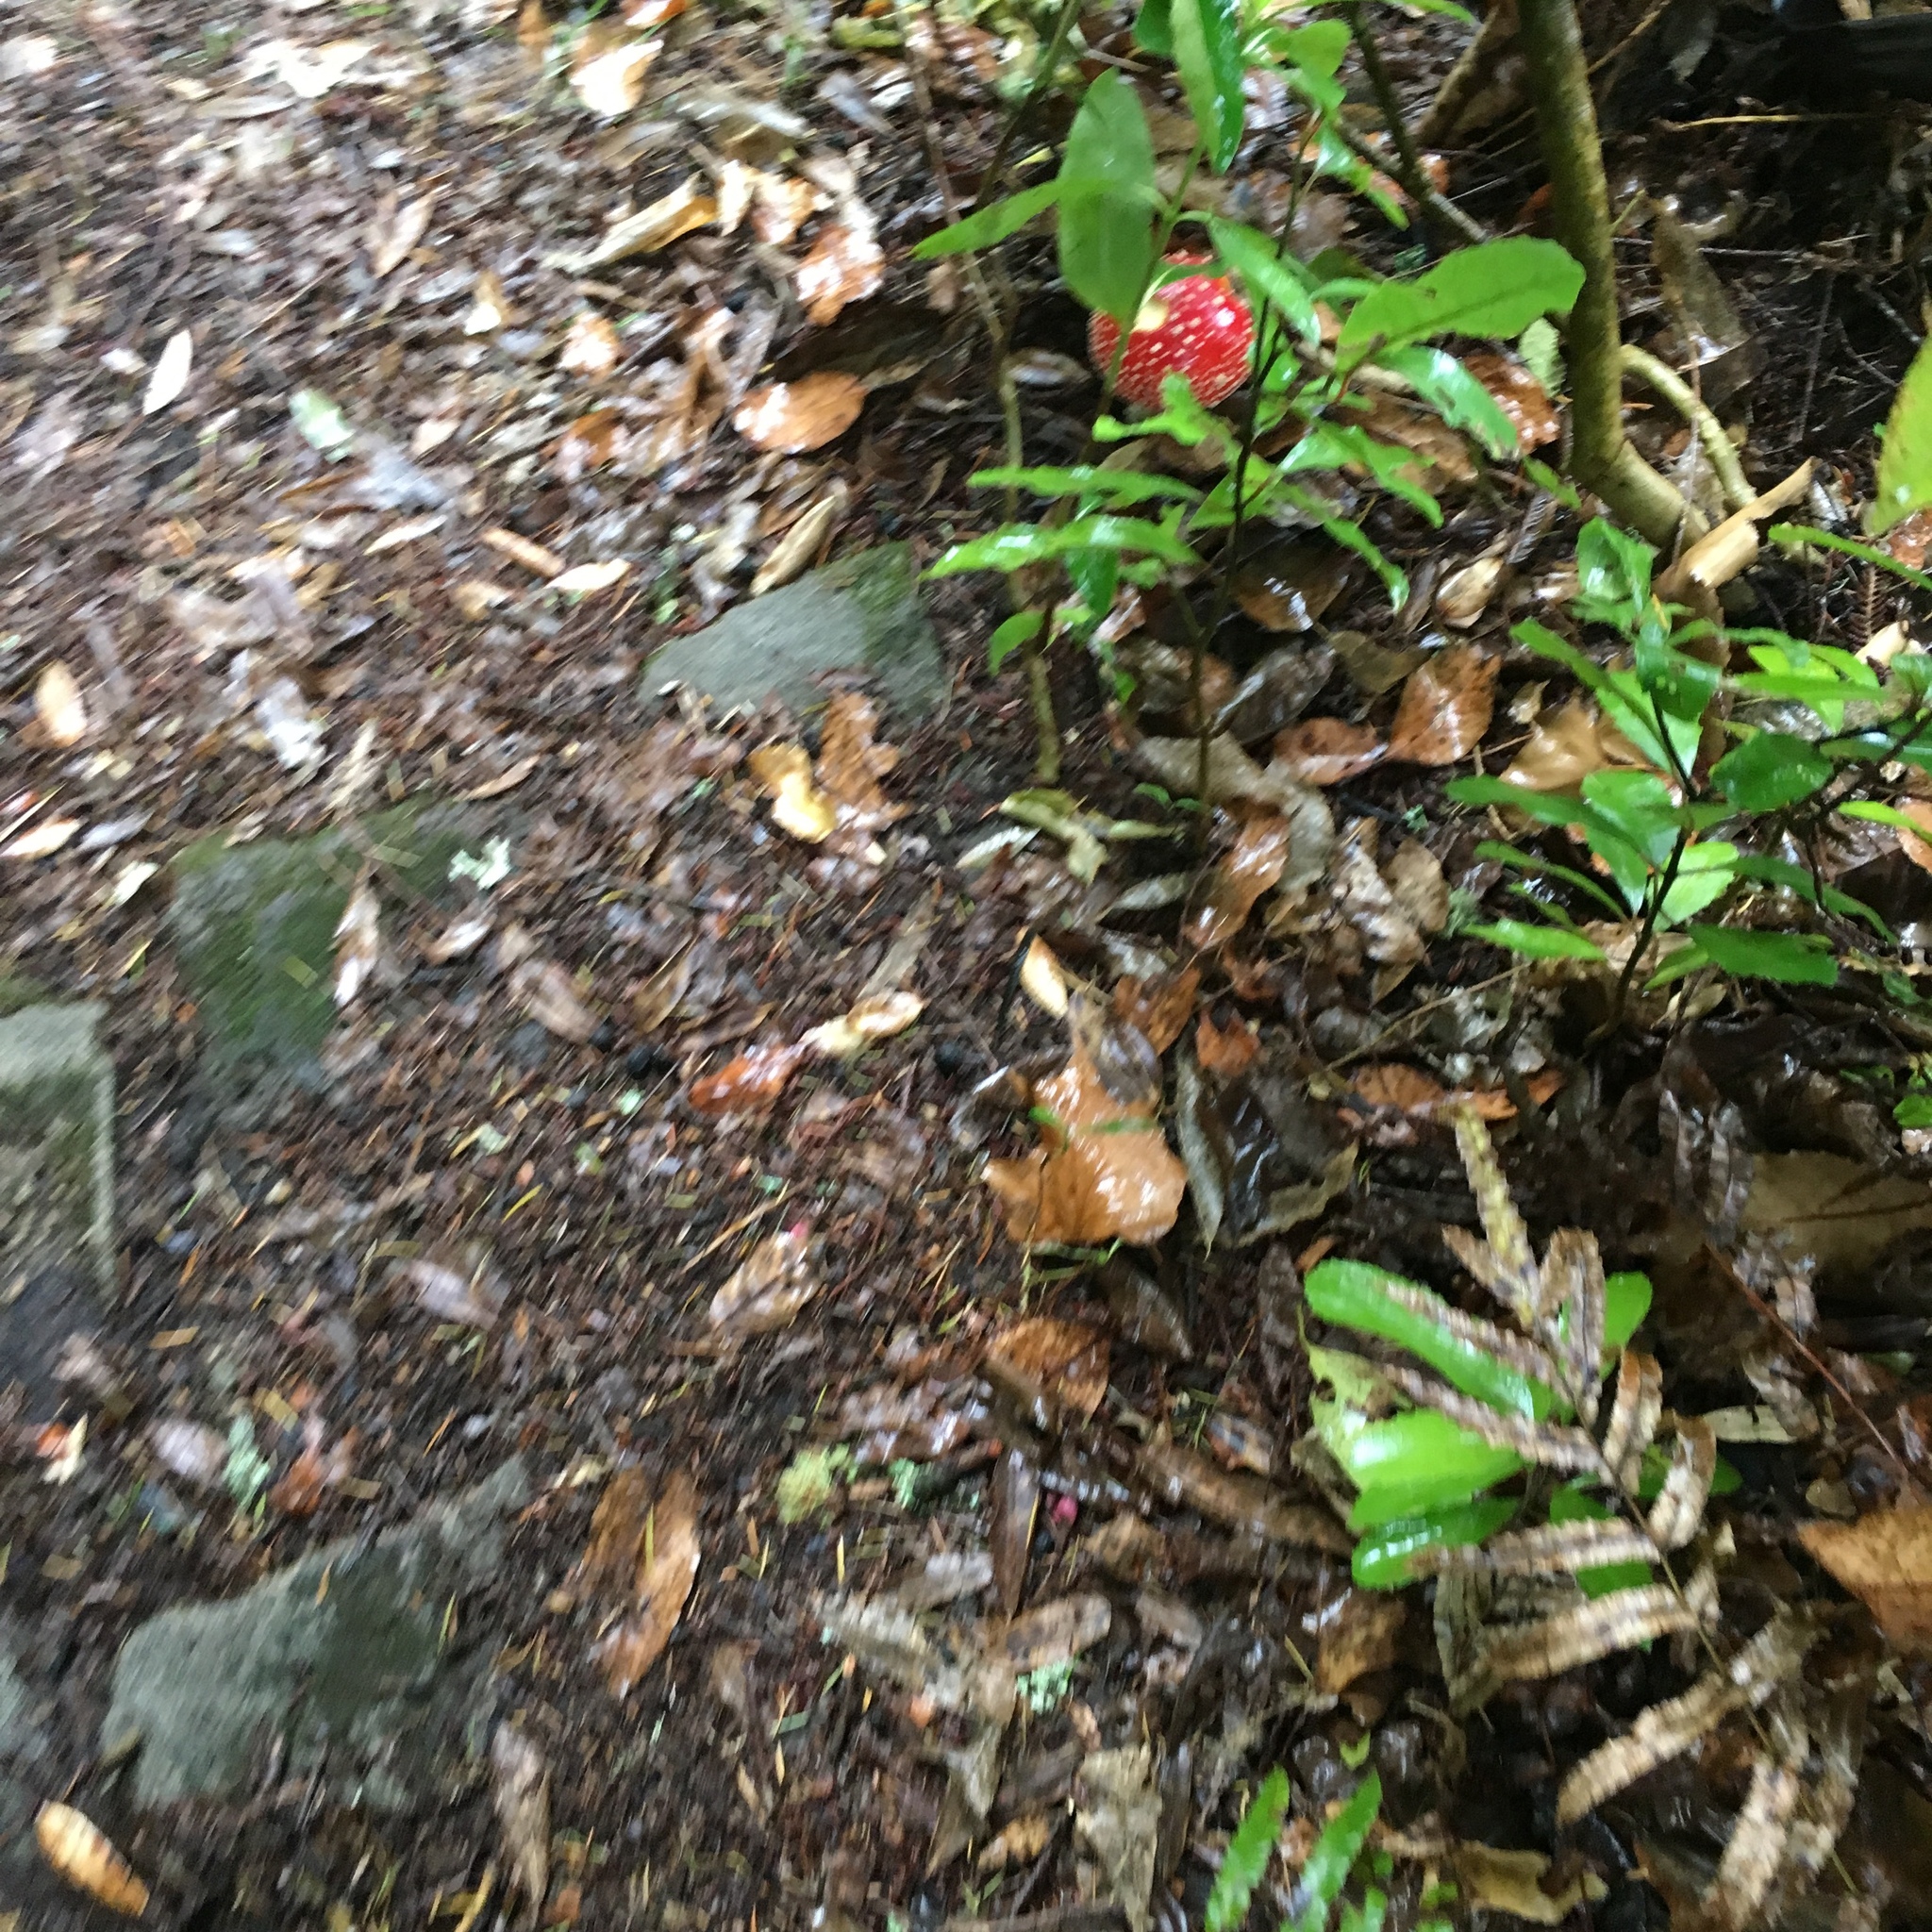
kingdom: Fungi
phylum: Basidiomycota
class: Agaricomycetes
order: Agaricales
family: Amanitaceae
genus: Amanita
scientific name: Amanita muscaria
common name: Fly agaric
